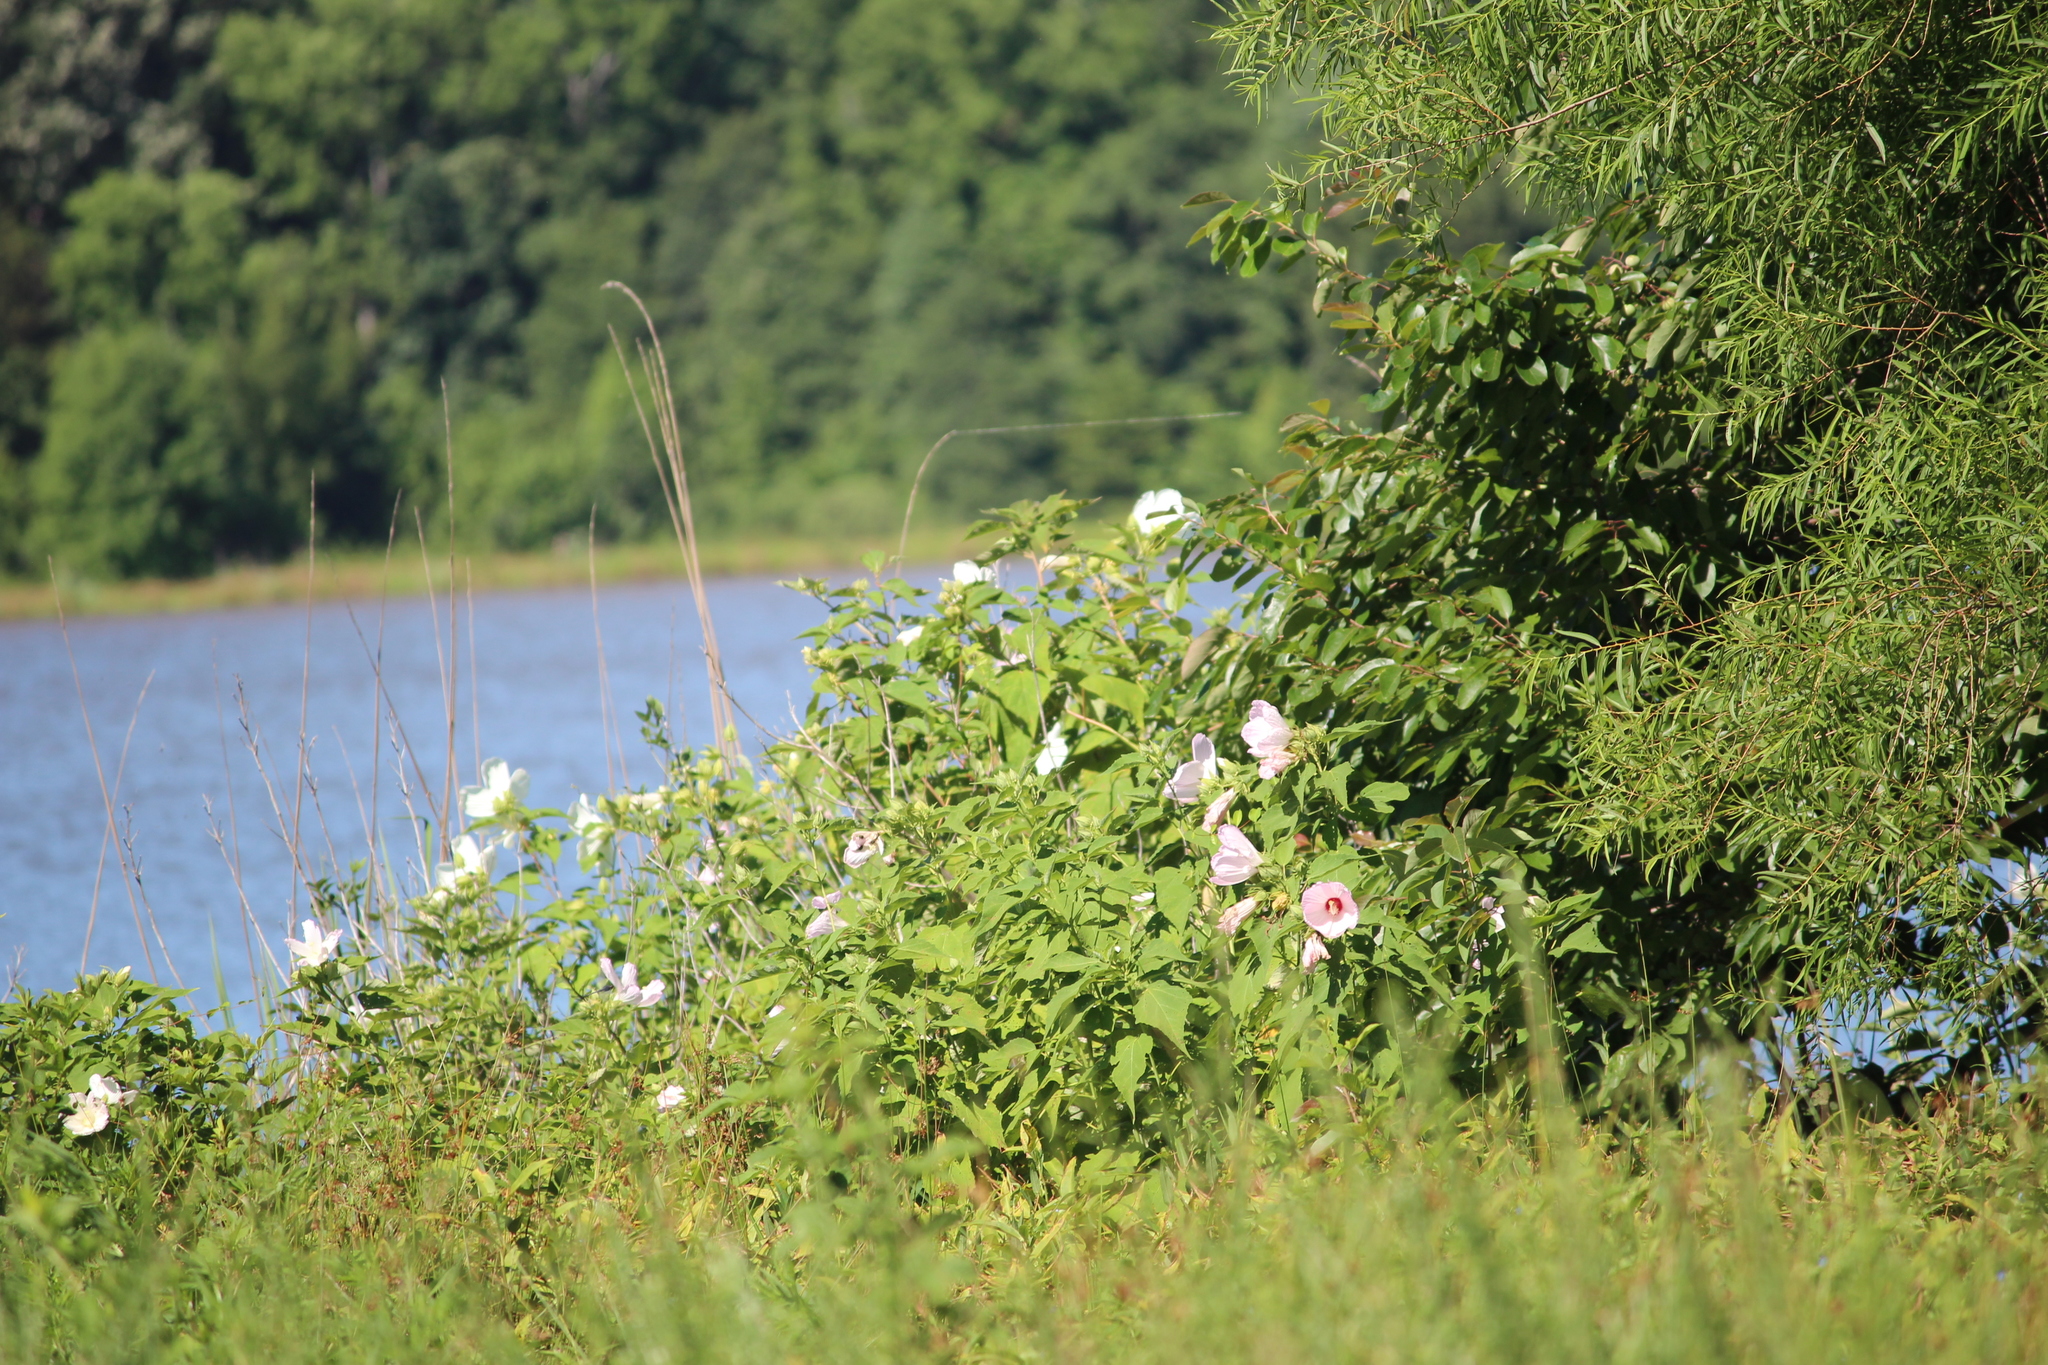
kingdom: Plantae
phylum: Tracheophyta
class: Magnoliopsida
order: Malvales
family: Malvaceae
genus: Hibiscus
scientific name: Hibiscus moscheutos
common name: Common rose-mallow
